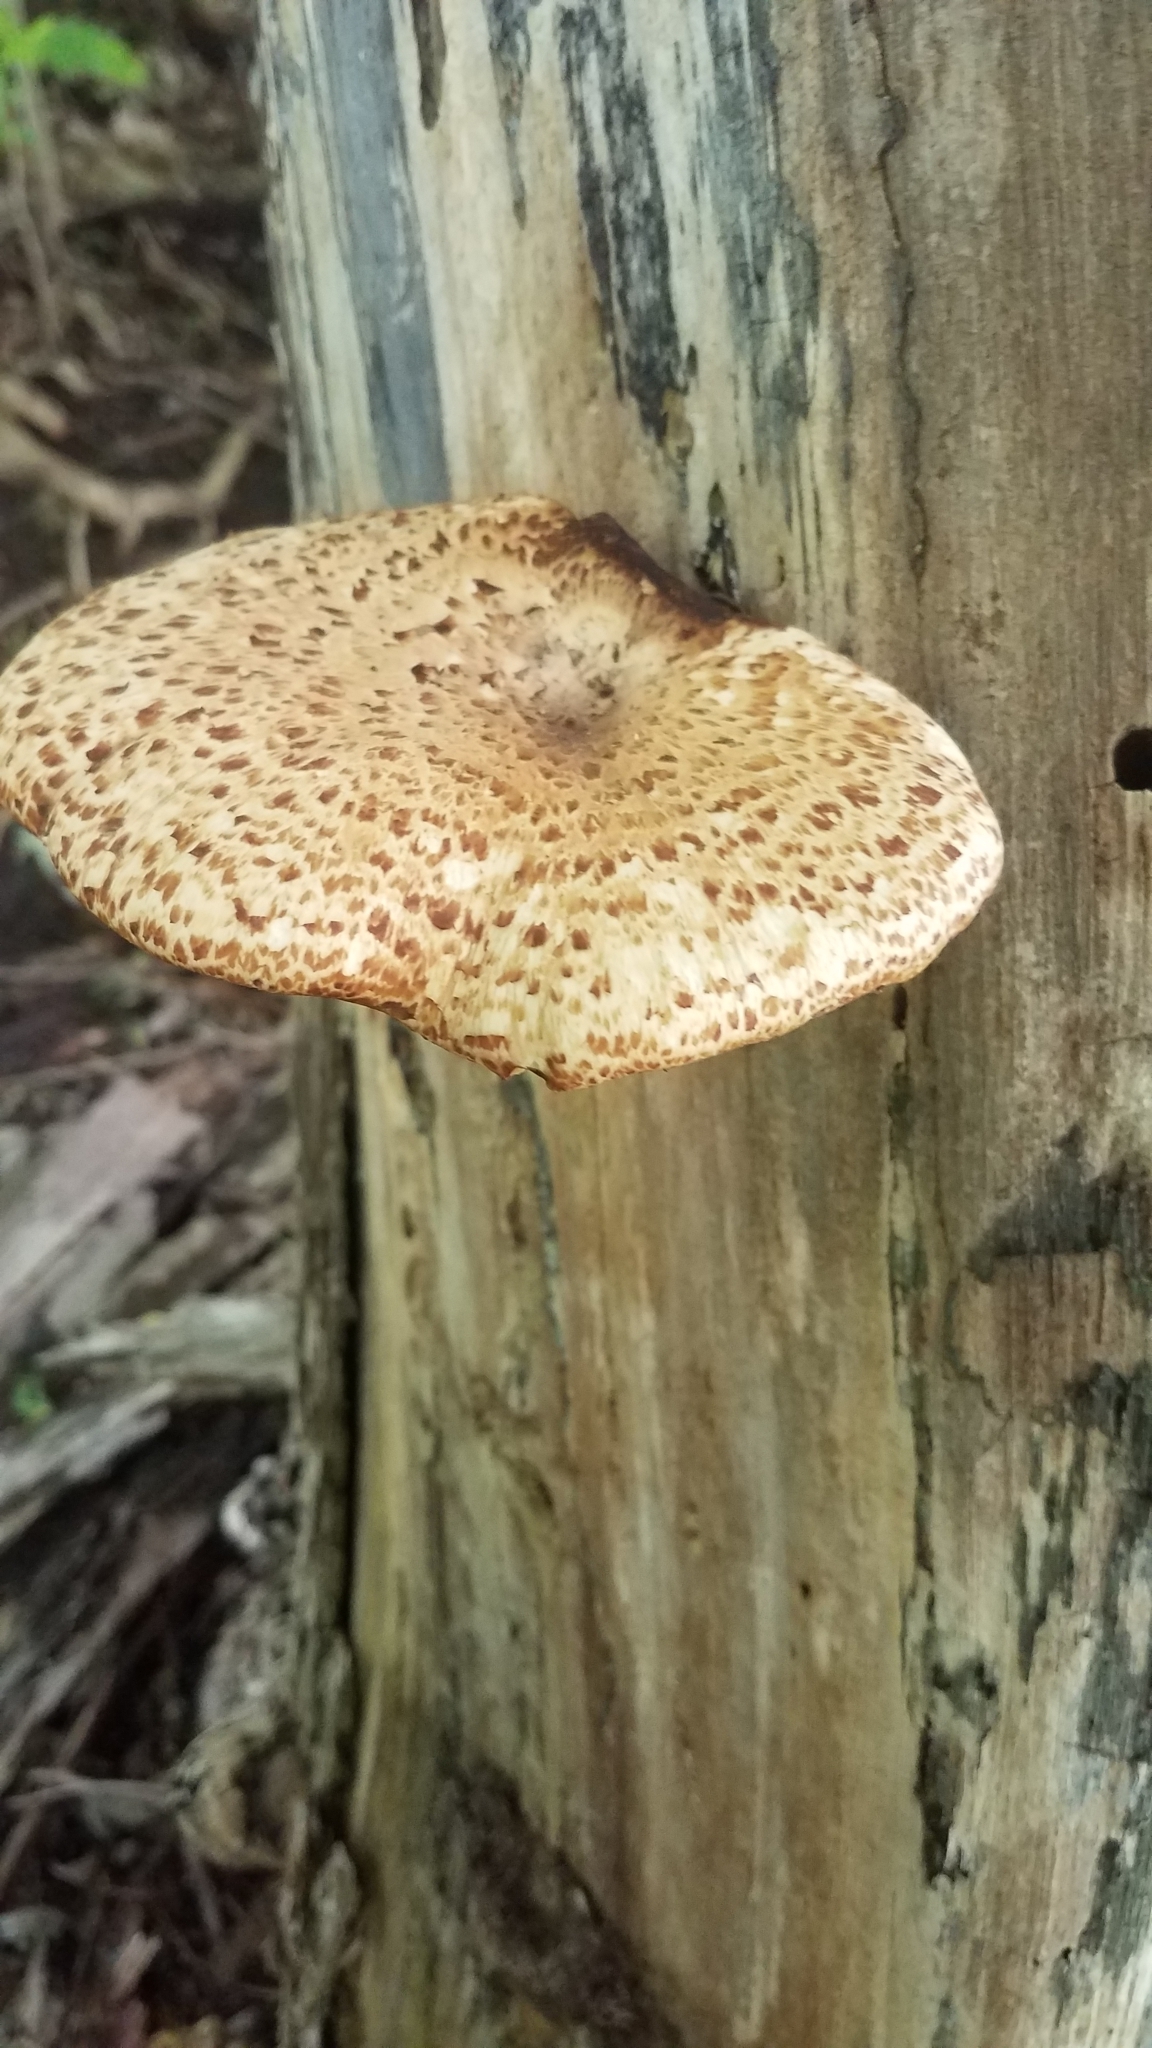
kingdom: Fungi
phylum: Basidiomycota
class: Agaricomycetes
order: Polyporales
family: Polyporaceae
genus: Cerioporus
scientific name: Cerioporus squamosus
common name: Dryad's saddle
